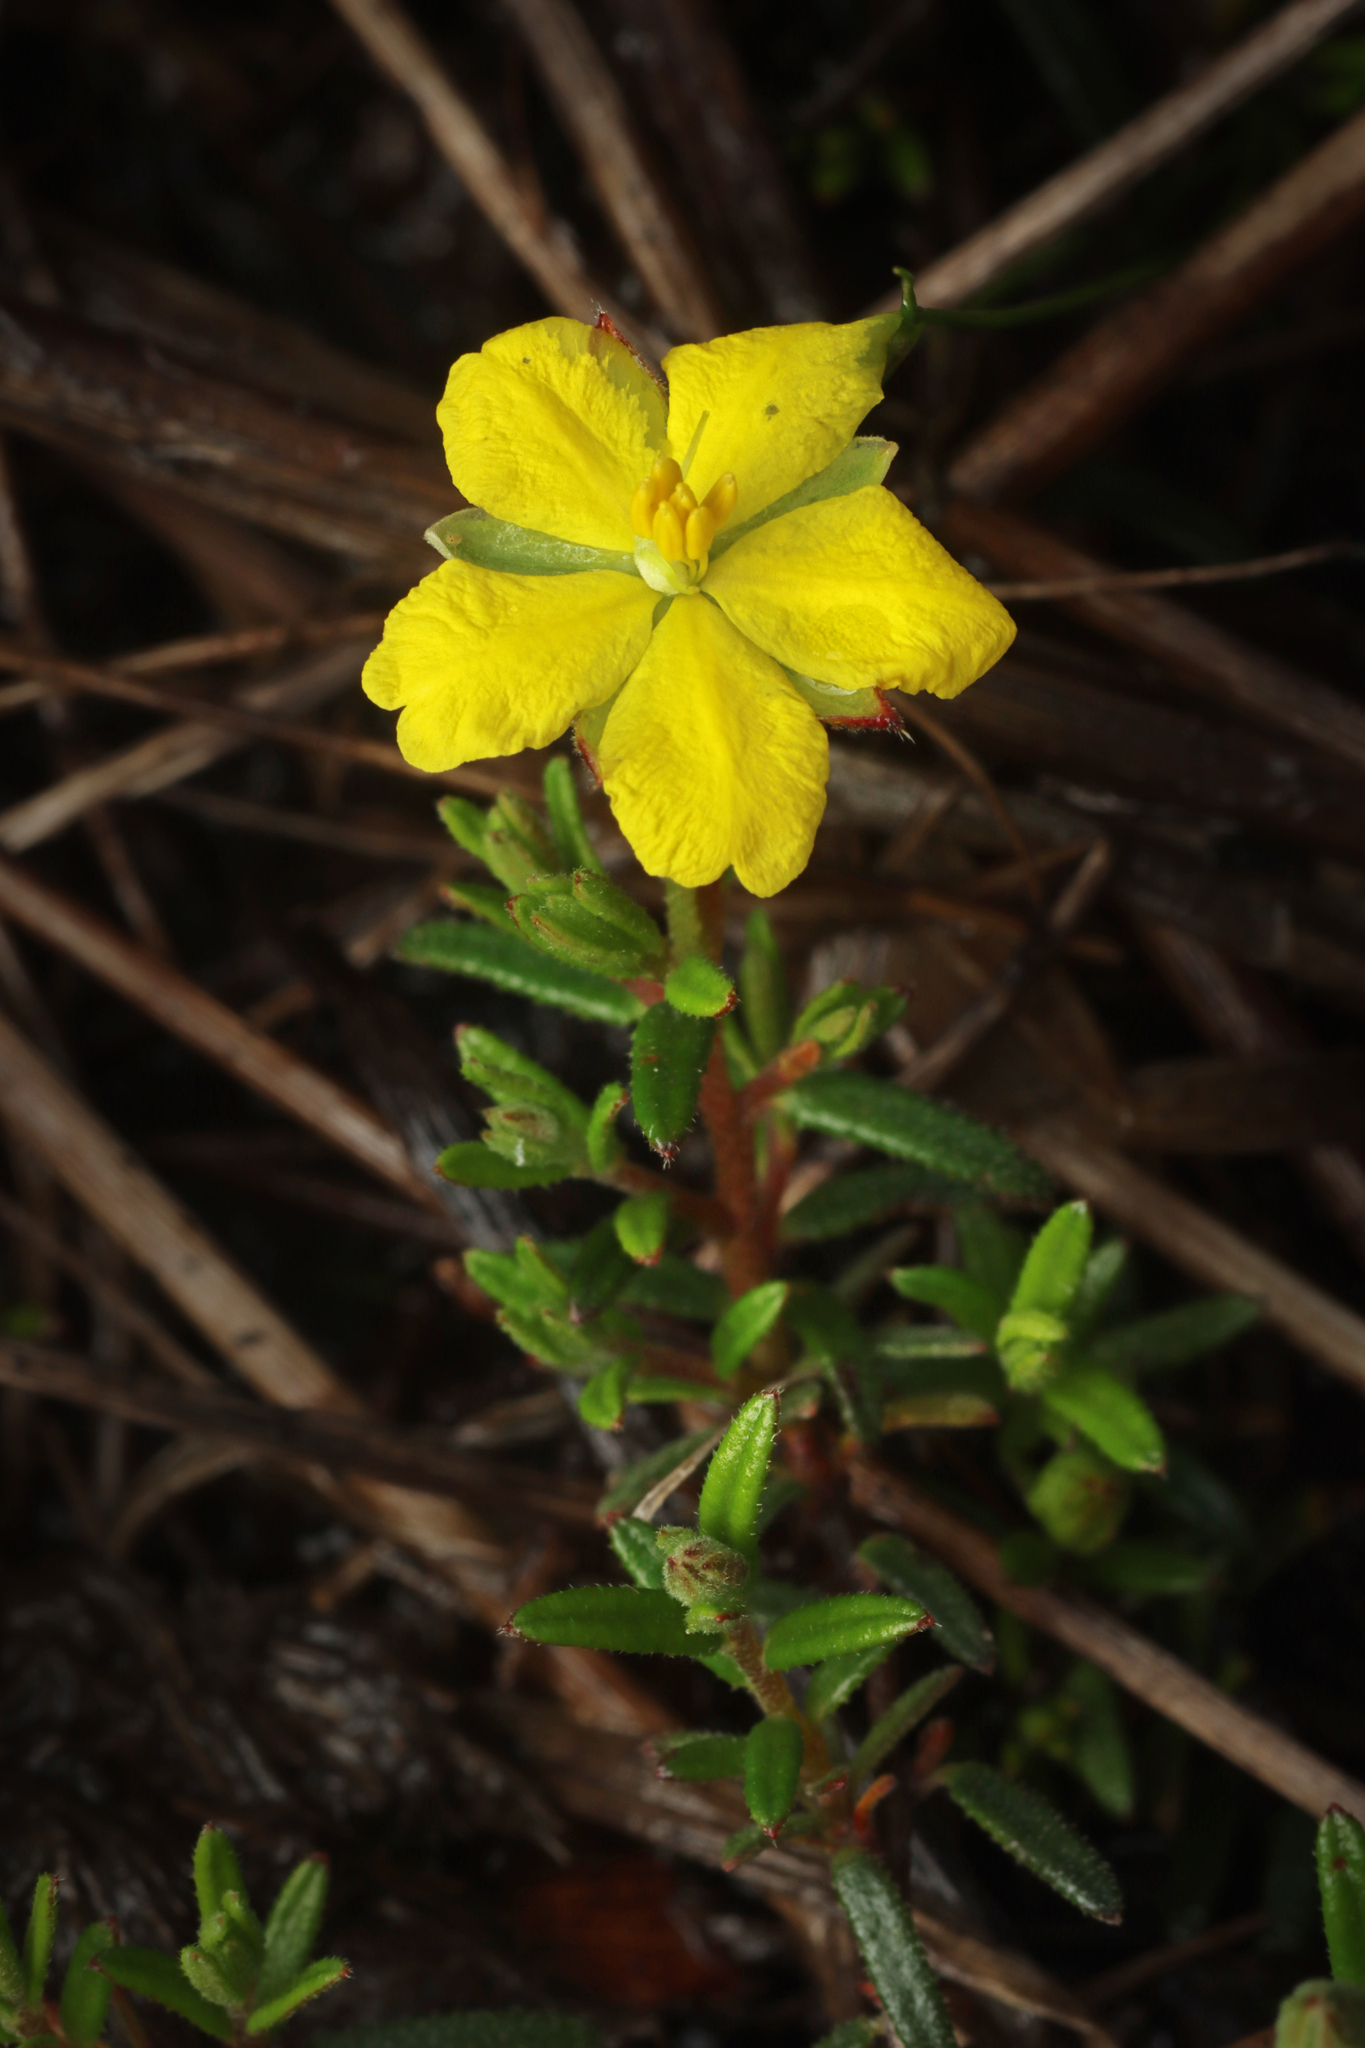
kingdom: Plantae
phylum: Tracheophyta
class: Magnoliopsida
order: Dilleniales
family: Dilleniaceae
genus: Hibbertia
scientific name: Hibbertia riparia
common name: Erect guinea-flower
